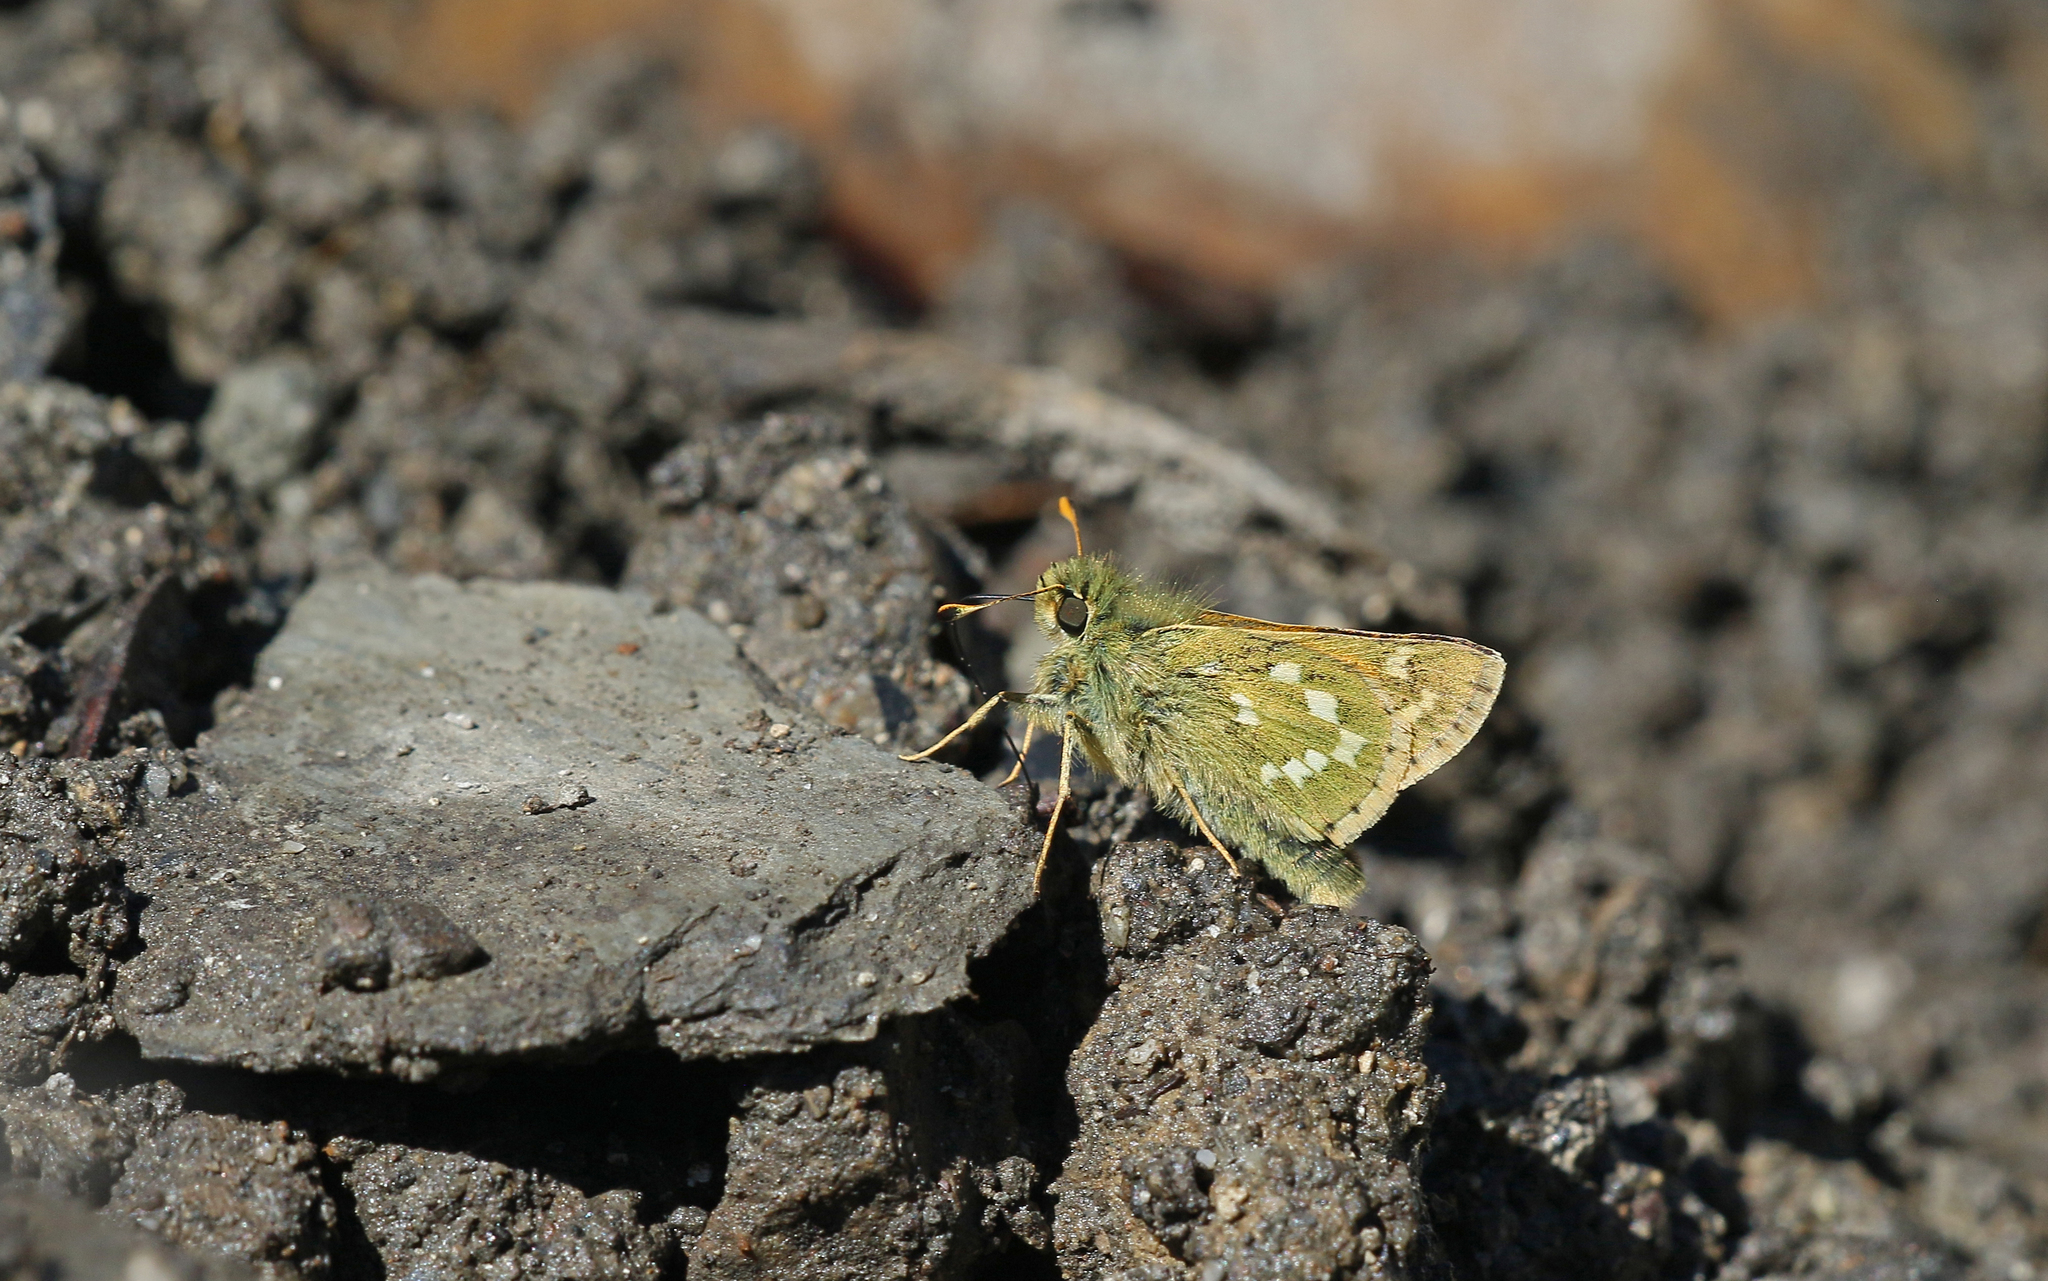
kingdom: Animalia
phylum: Arthropoda
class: Insecta
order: Lepidoptera
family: Hesperiidae
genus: Hesperia
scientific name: Hesperia comma
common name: Common branded skipper
